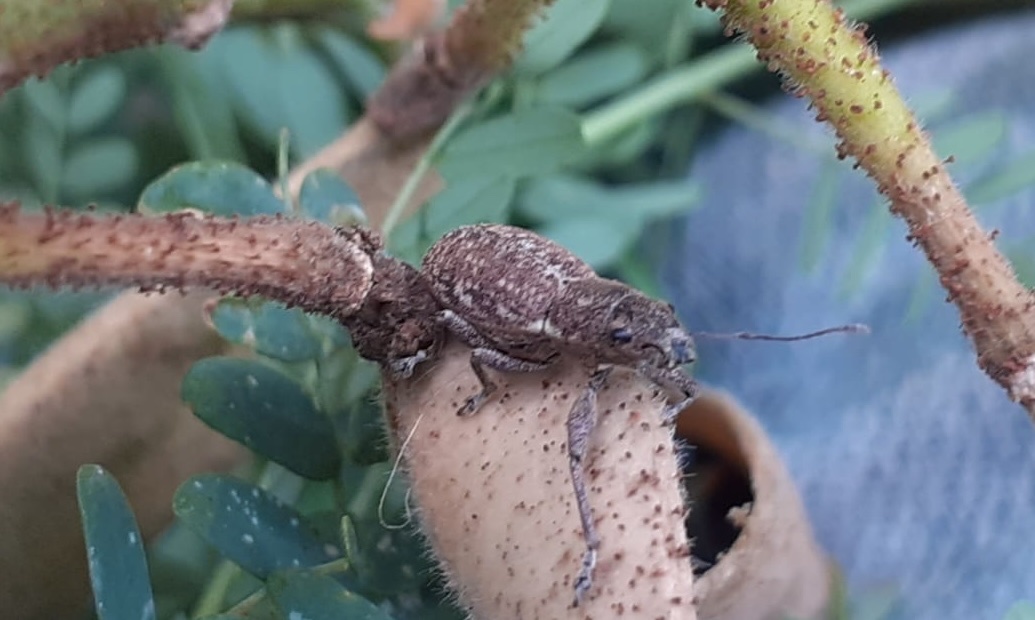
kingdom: Animalia
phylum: Arthropoda
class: Insecta
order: Coleoptera
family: Curculionidae
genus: Naupactus
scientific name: Naupactus cervinus
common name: Fuller rose beetle
